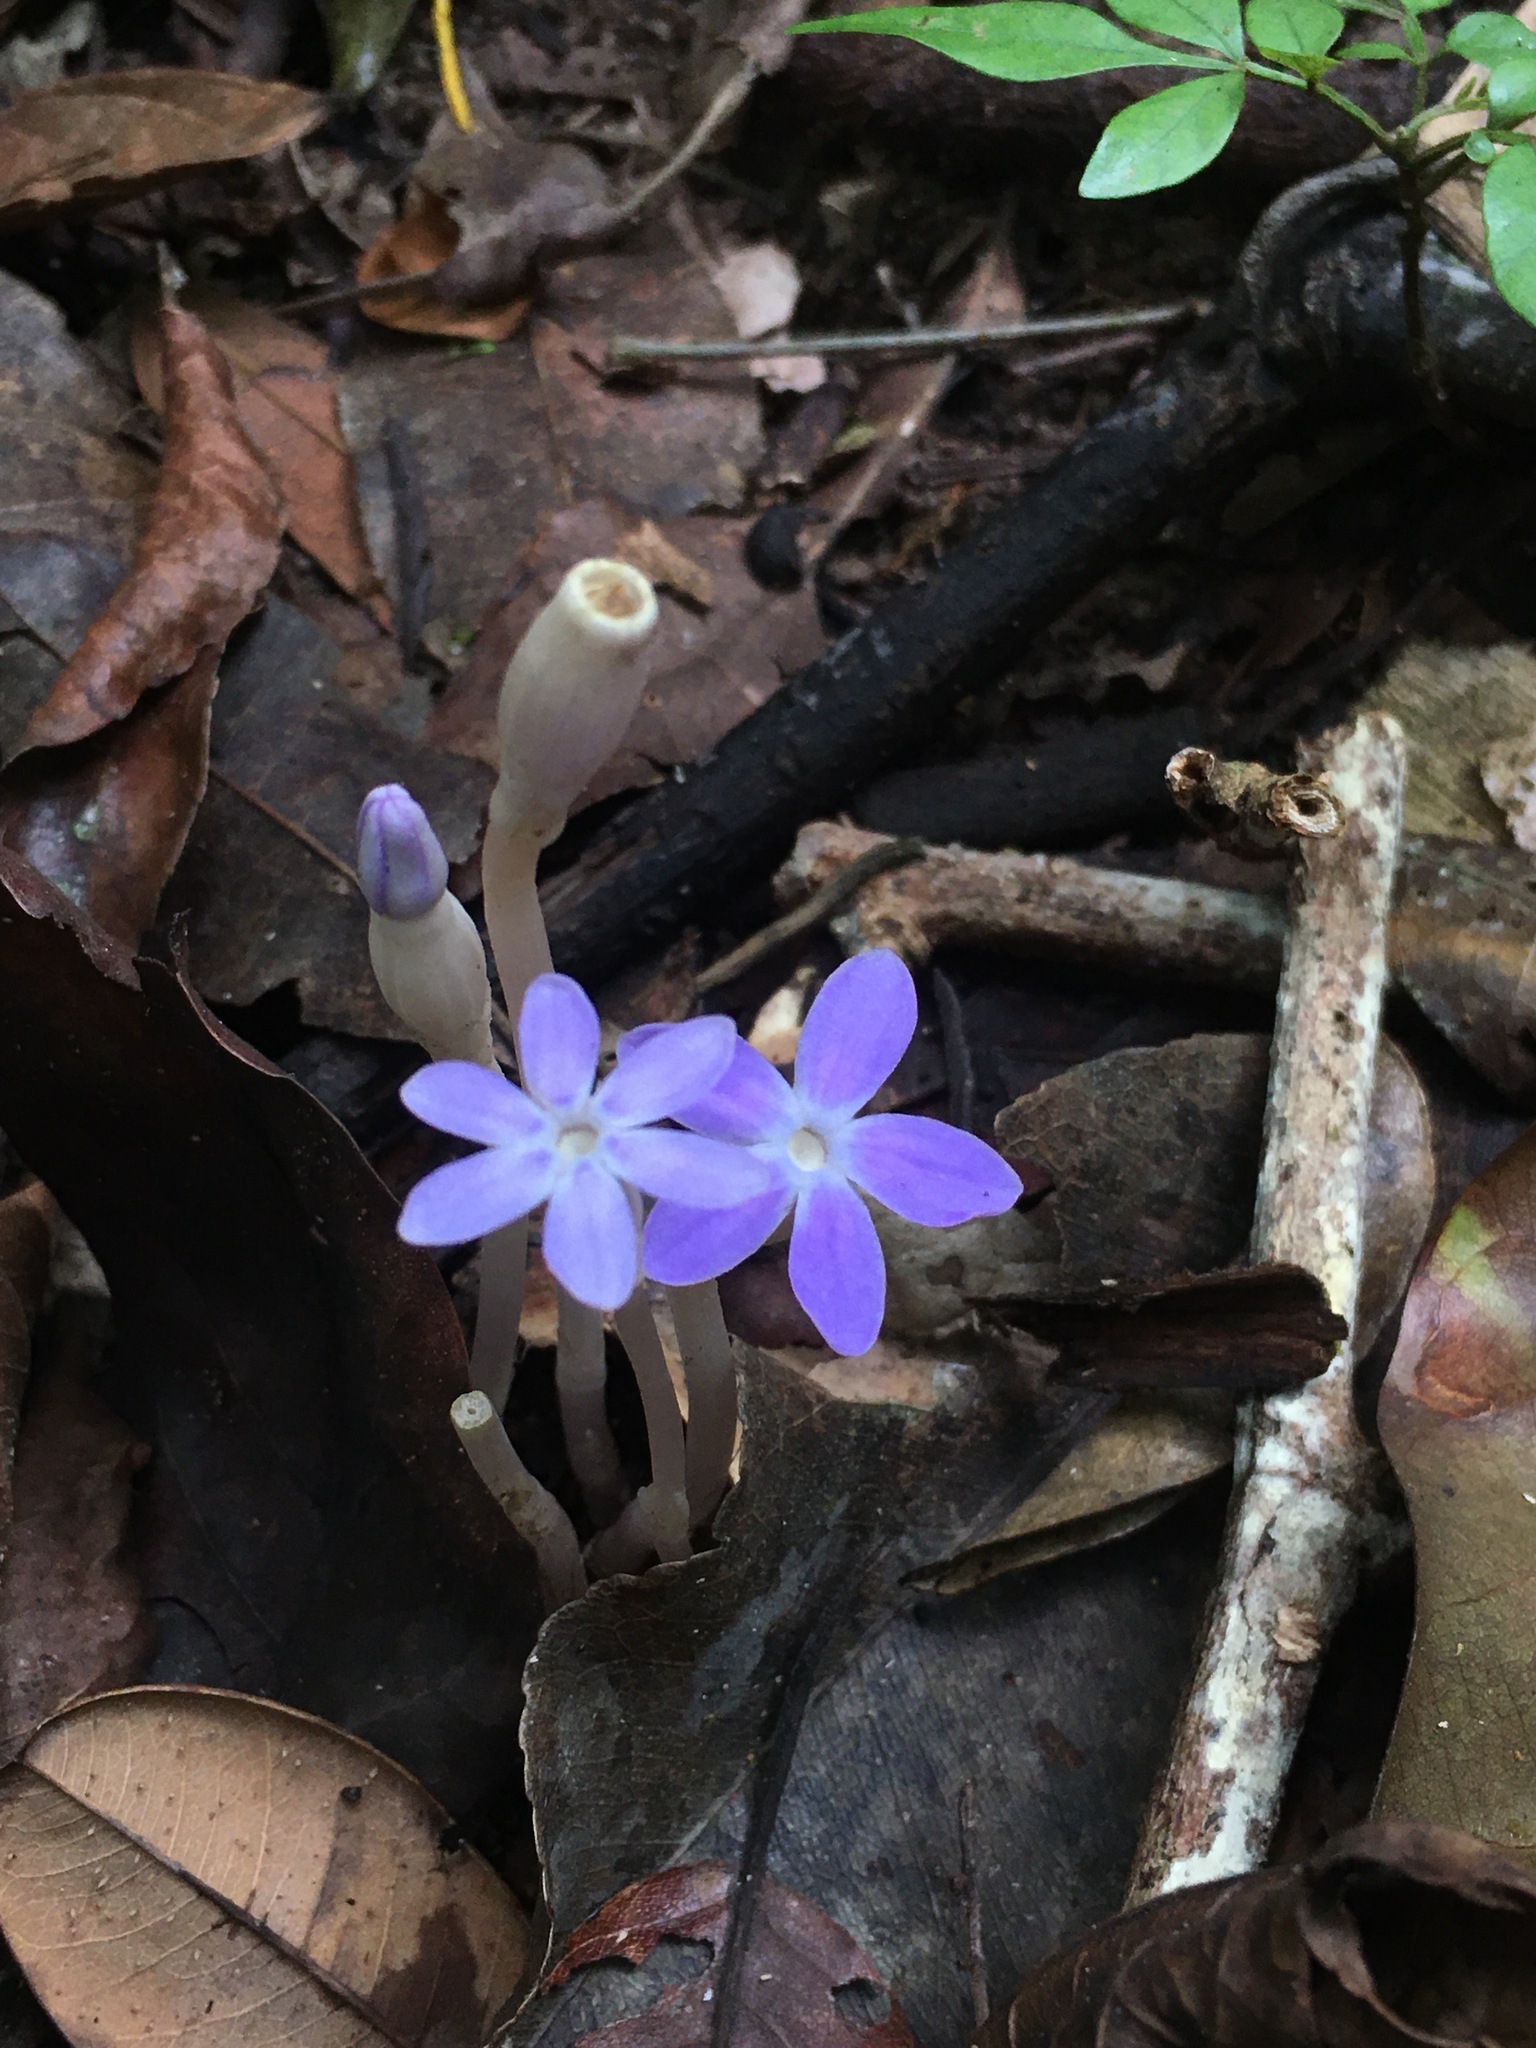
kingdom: Plantae
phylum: Tracheophyta
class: Magnoliopsida
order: Gentianales
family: Gentianaceae
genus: Voyria
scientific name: Voyria obconica
